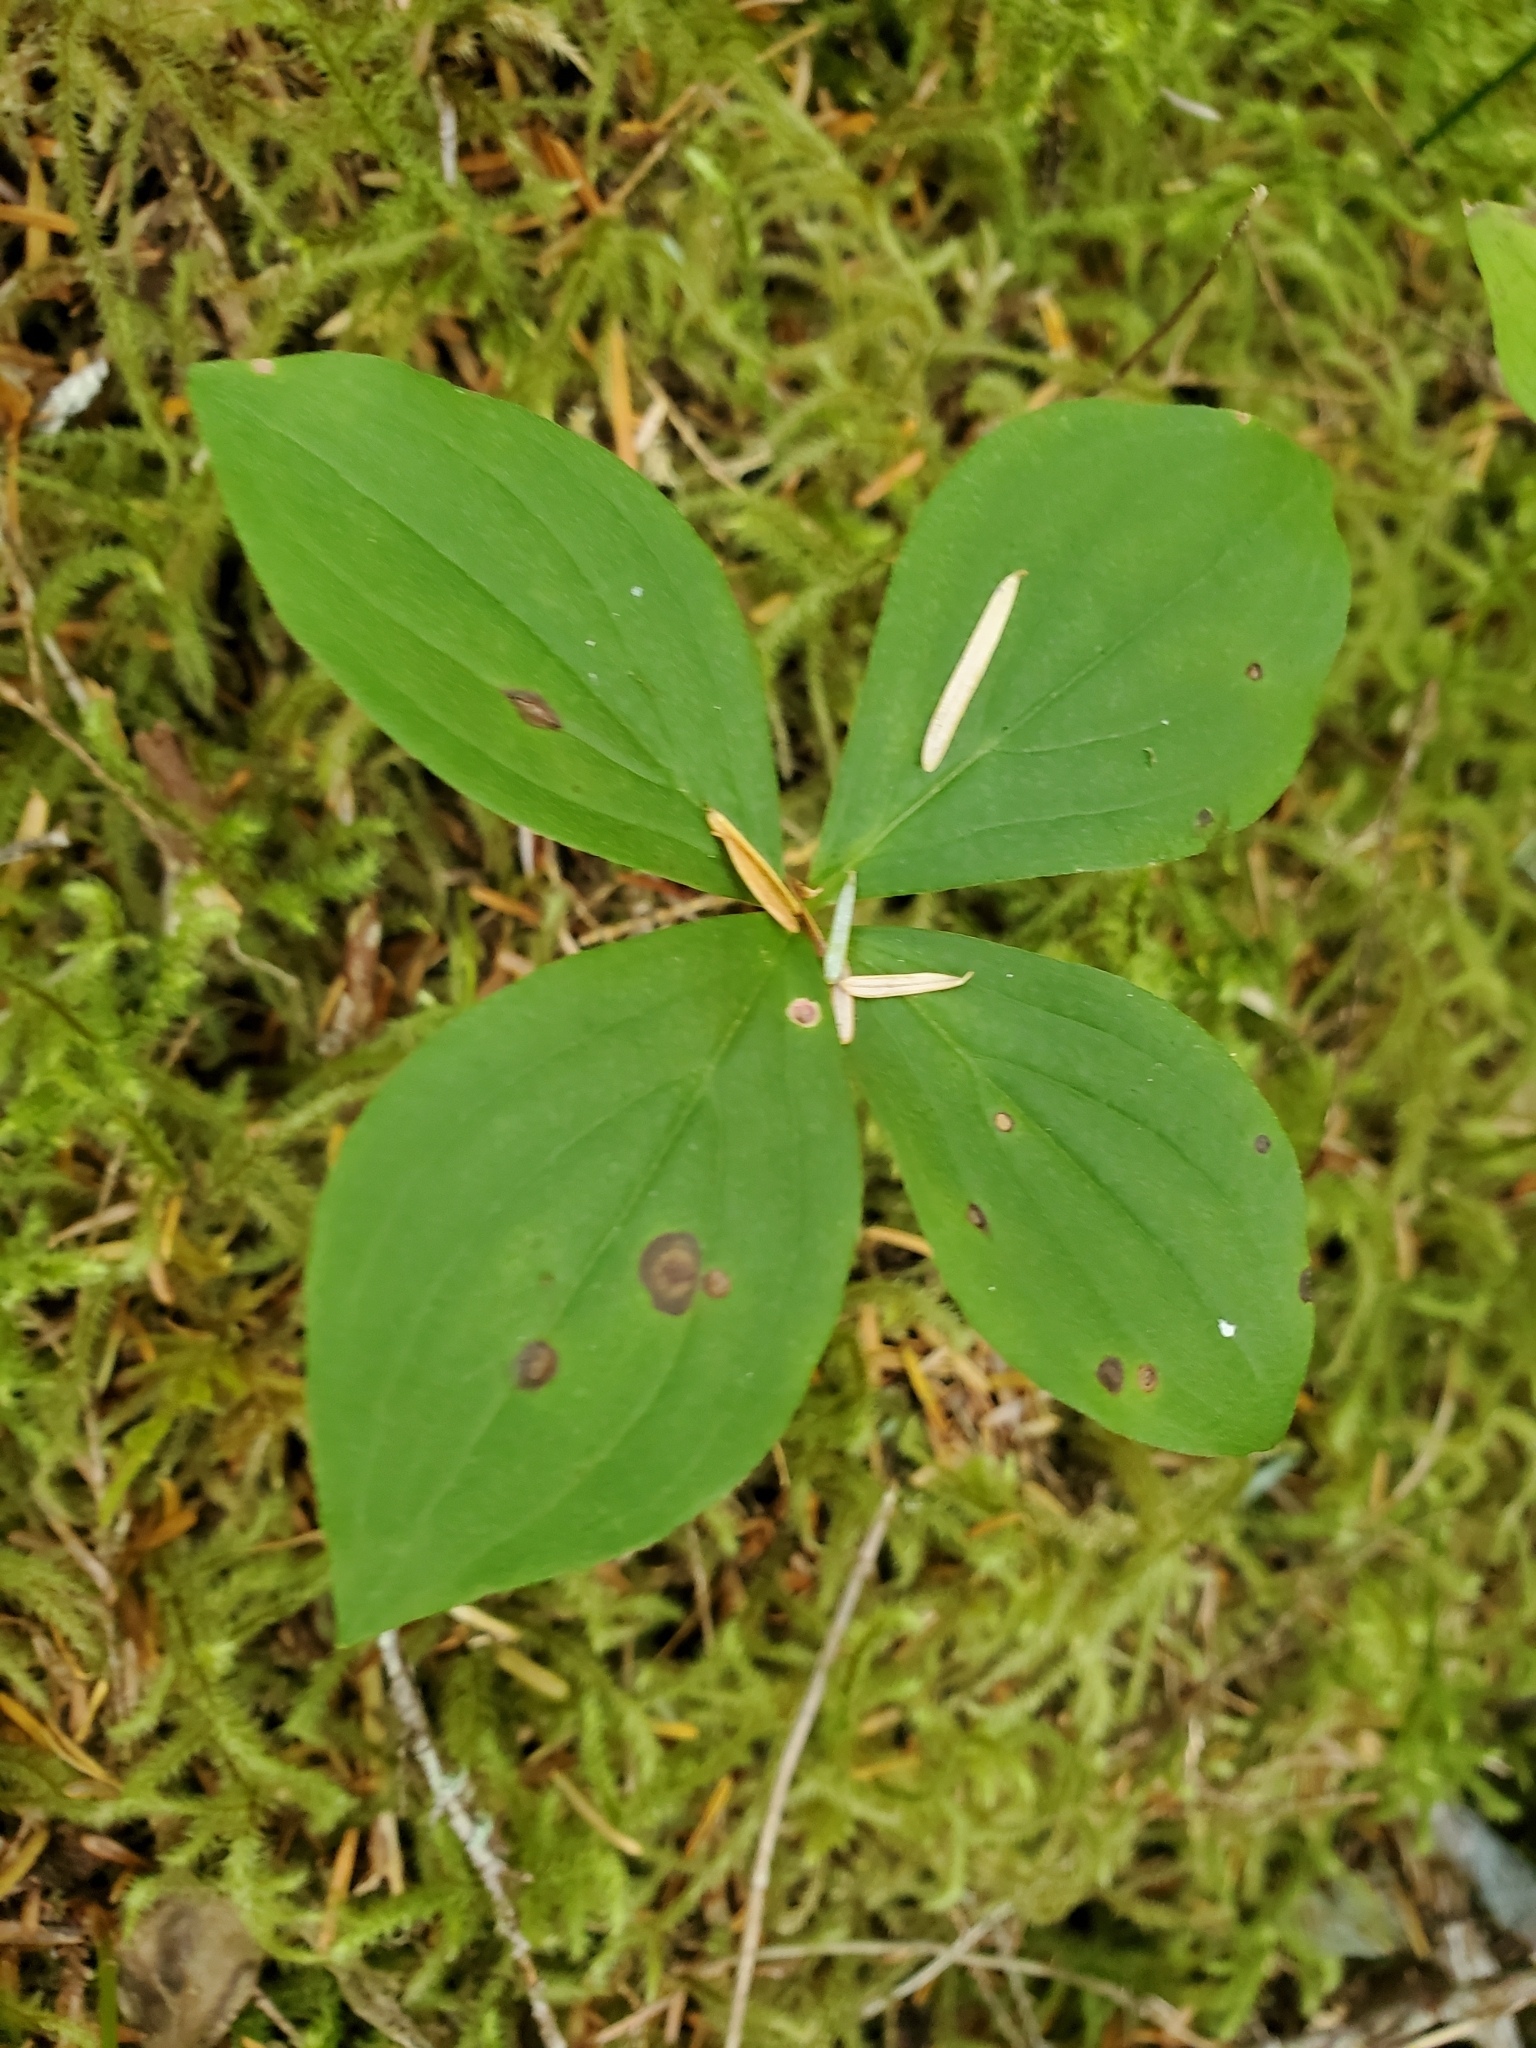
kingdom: Plantae
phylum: Tracheophyta
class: Magnoliopsida
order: Cornales
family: Cornaceae
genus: Cornus
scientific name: Cornus unalaschkensis
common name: Alaska bunchberry
